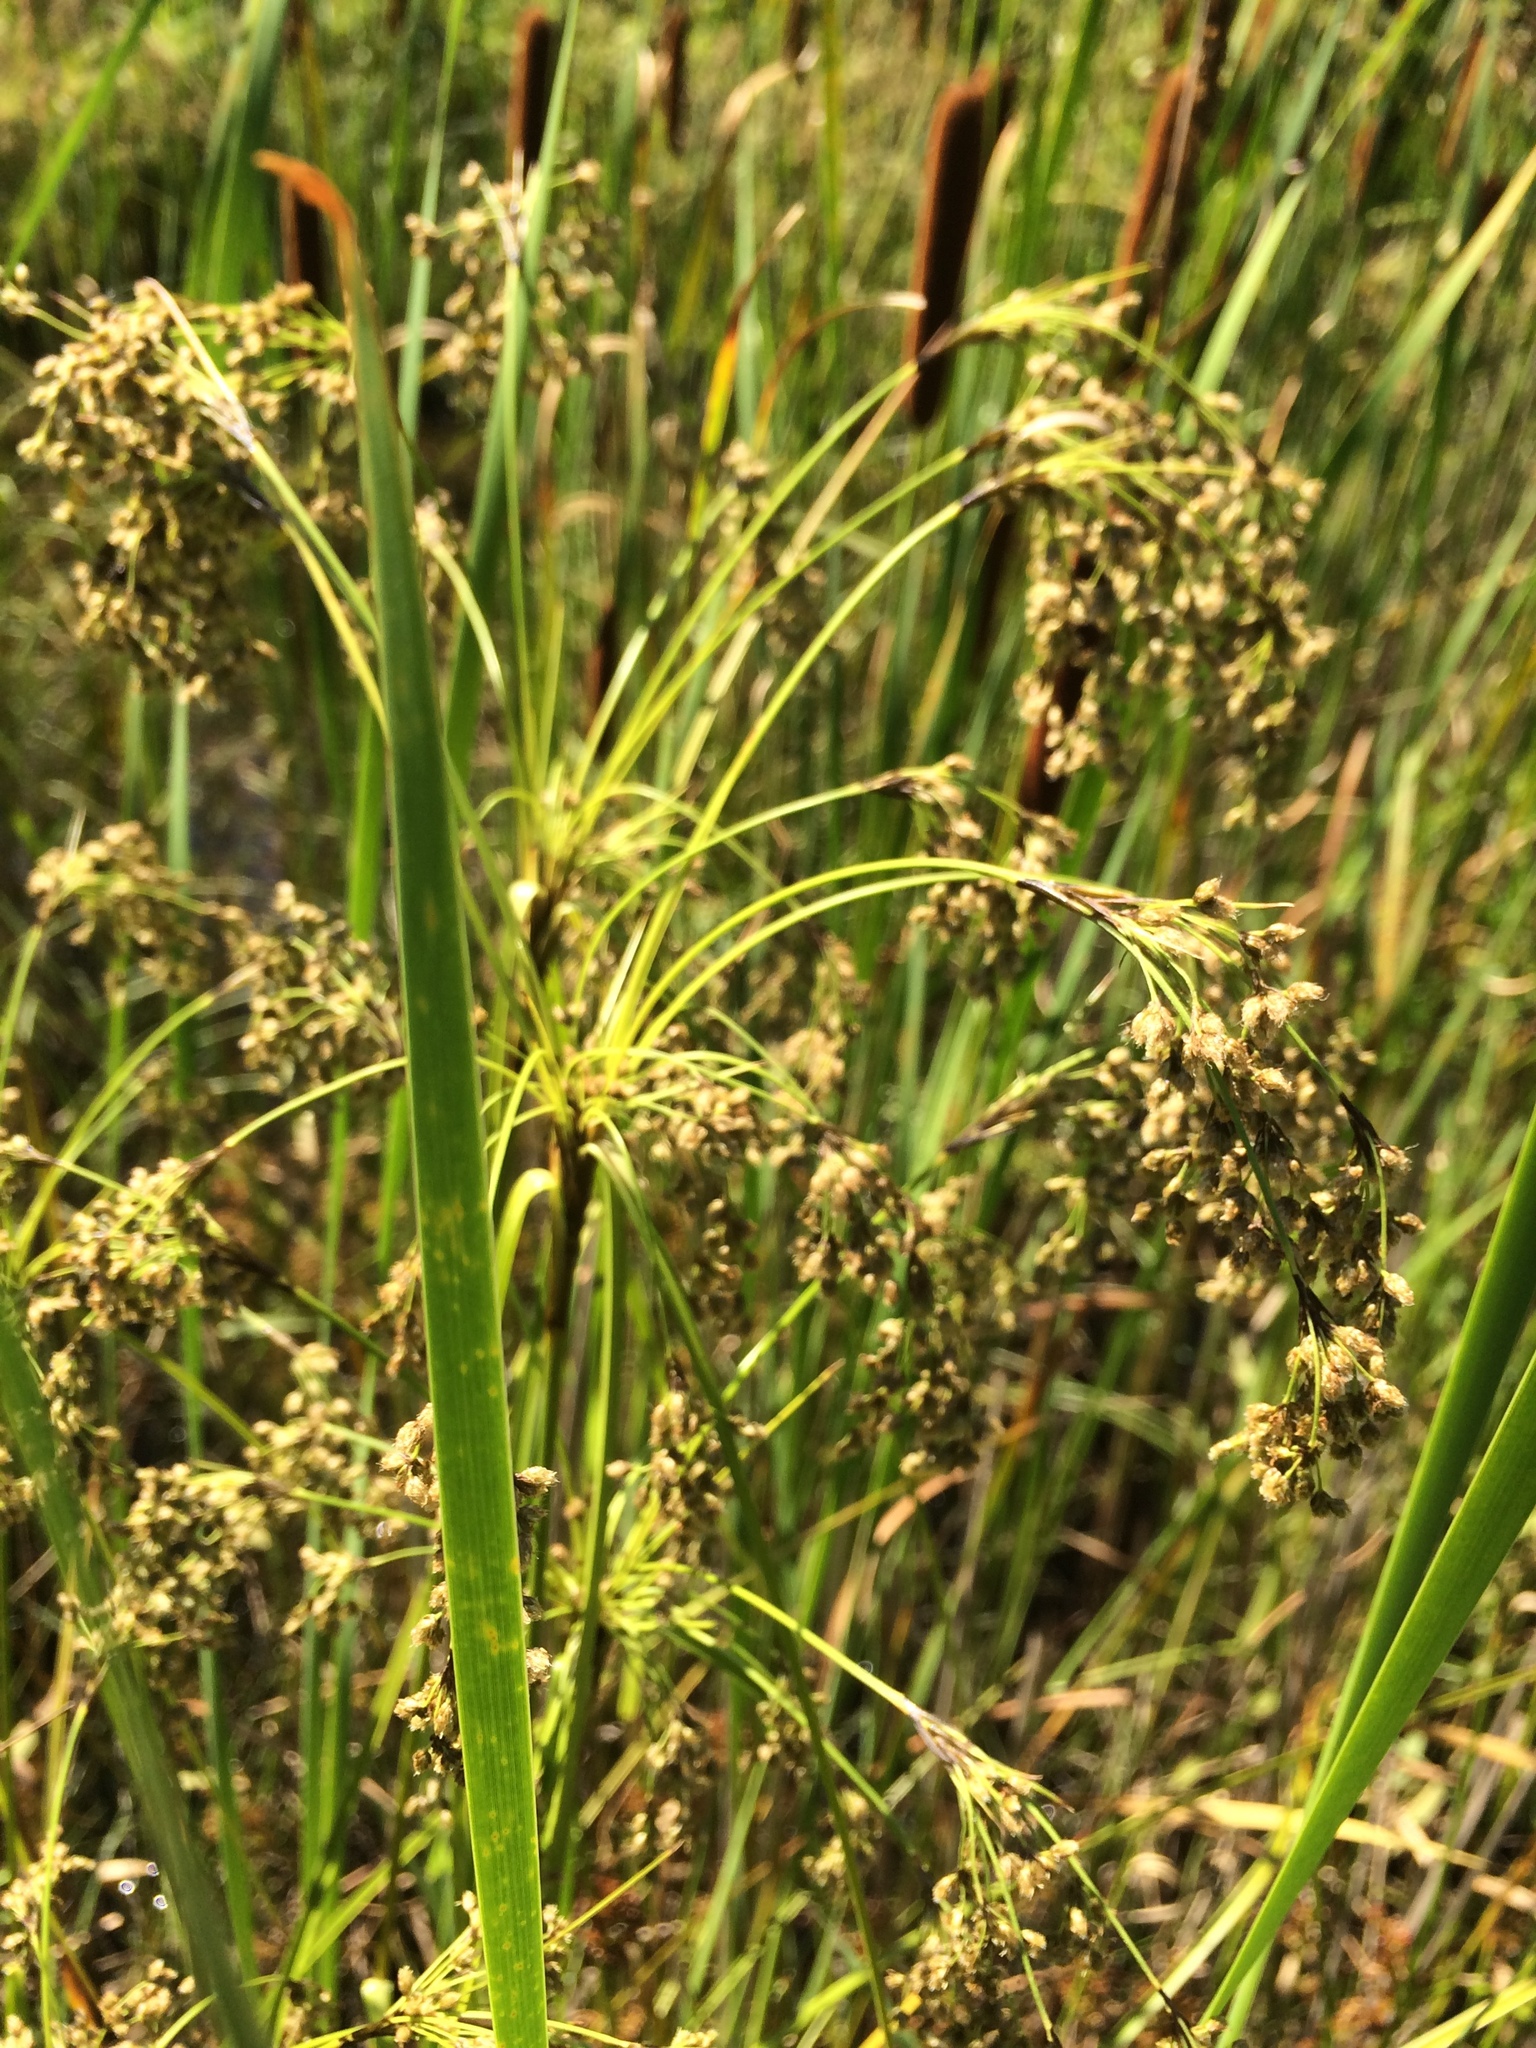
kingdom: Plantae
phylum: Tracheophyta
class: Liliopsida
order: Poales
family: Cyperaceae
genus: Scirpus
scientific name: Scirpus microcarpus
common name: Panicled bulrush
